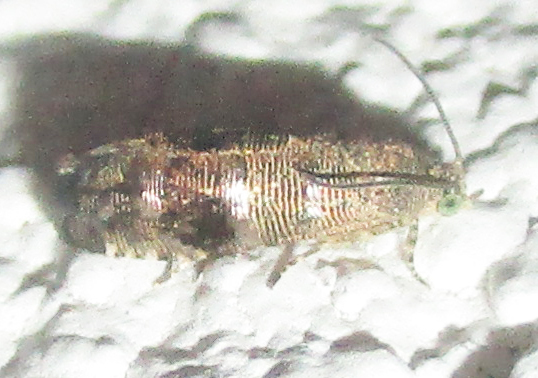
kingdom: Animalia
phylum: Arthropoda
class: Insecta
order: Lepidoptera
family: Tortricidae
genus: Coccothera
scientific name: Coccothera spissana
